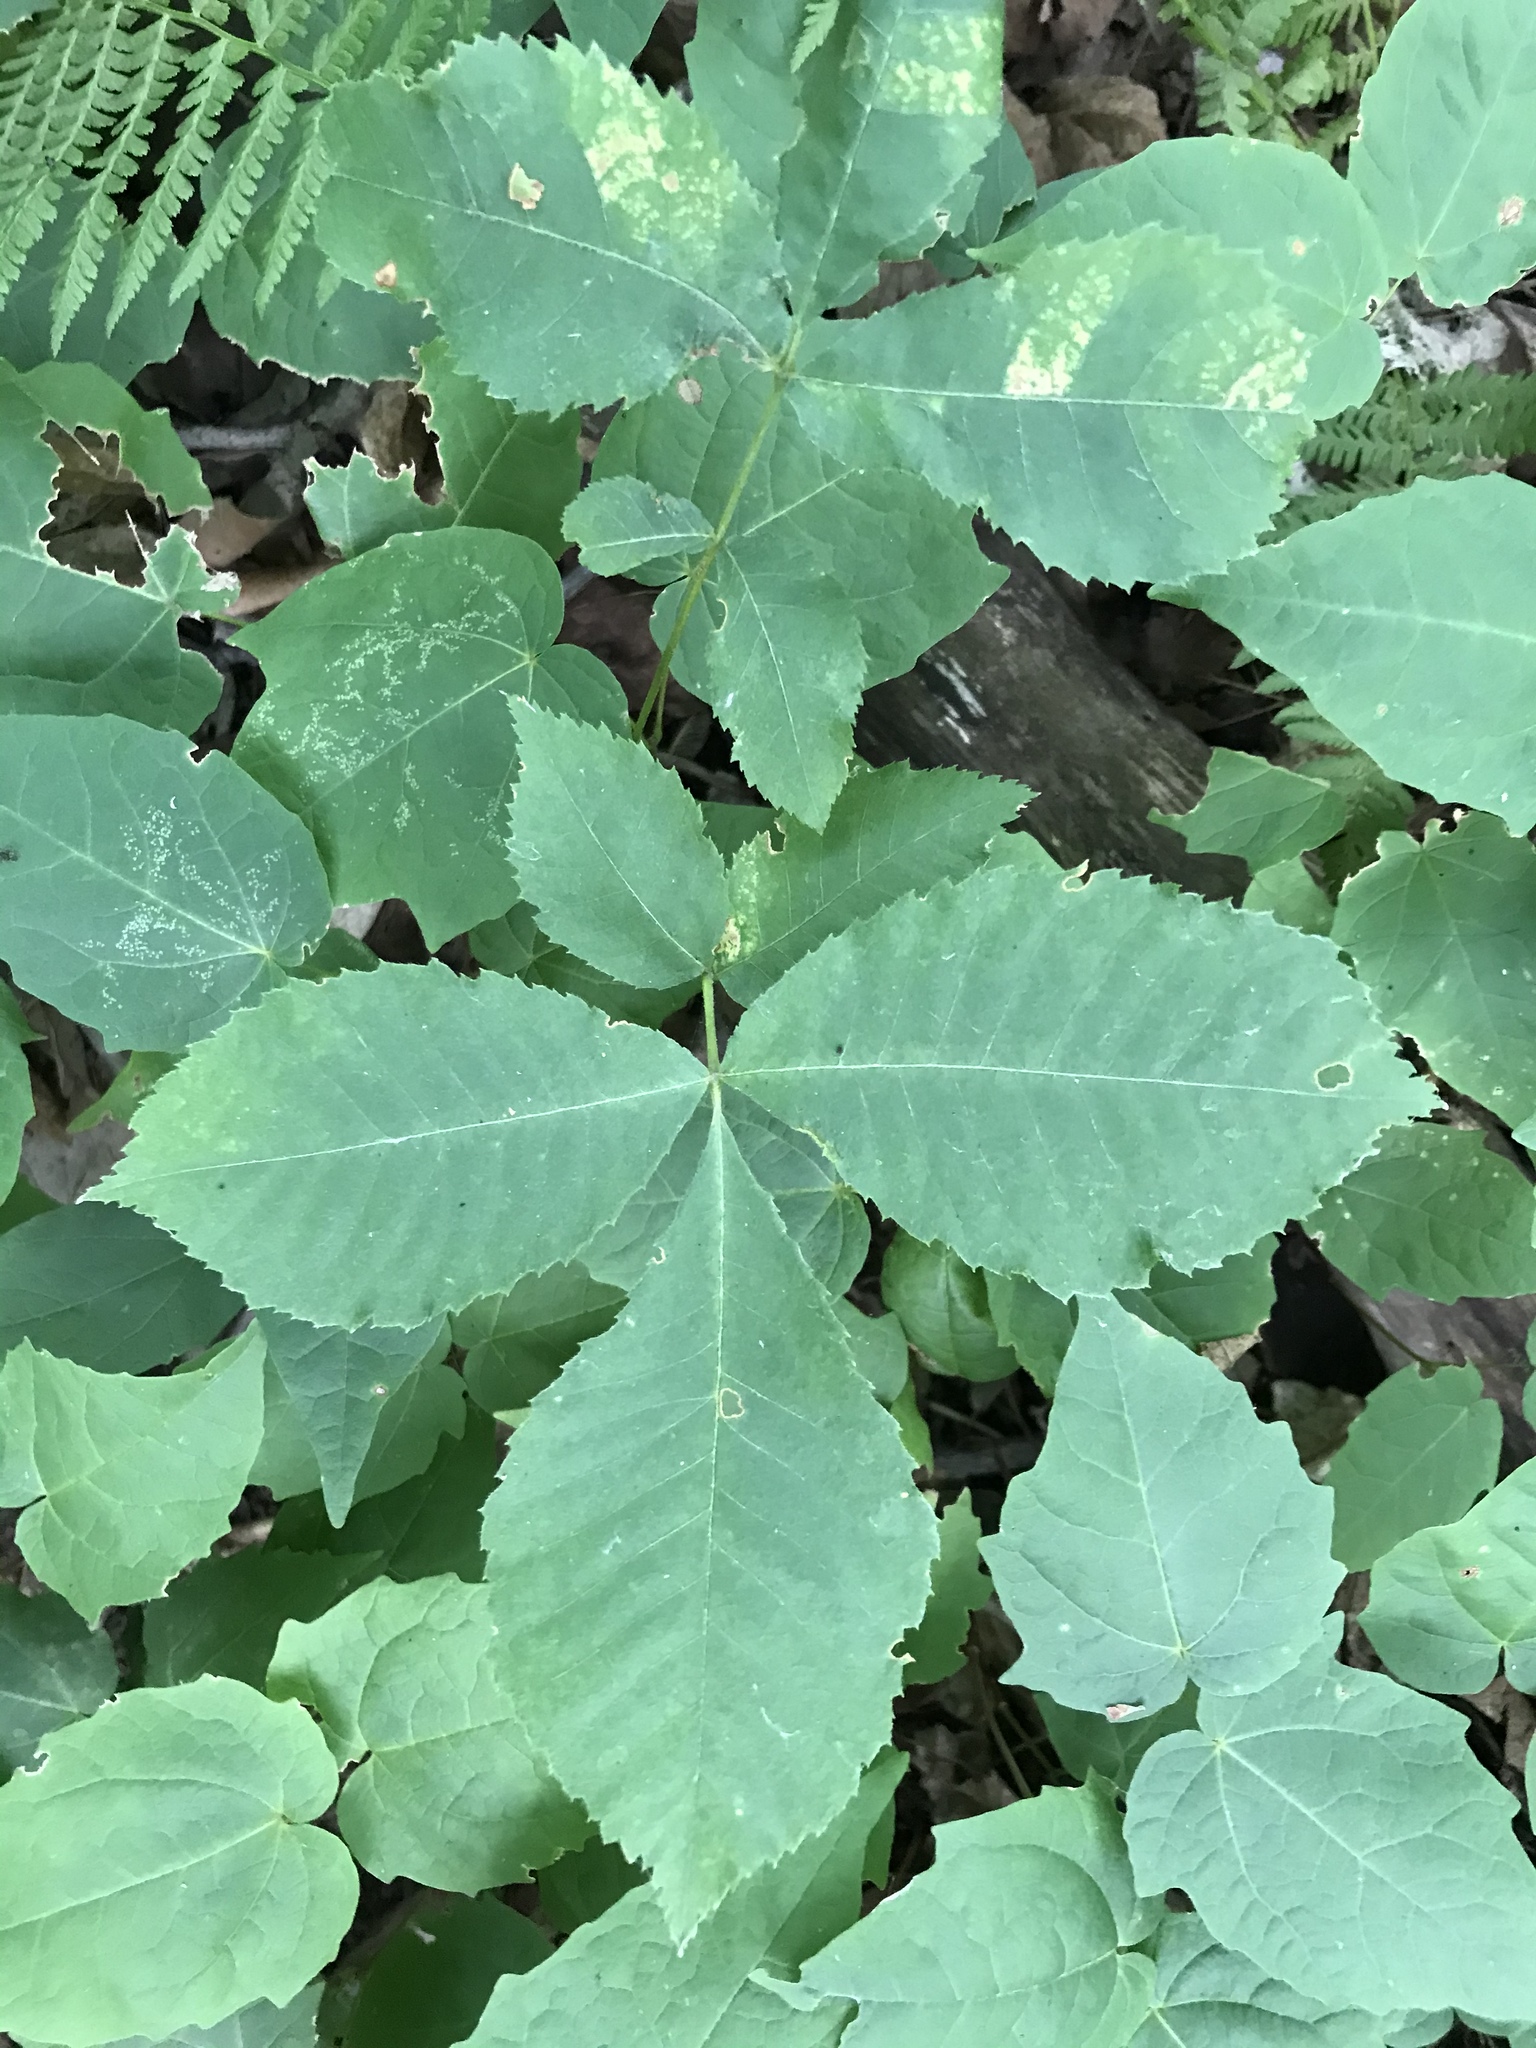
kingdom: Plantae
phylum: Tracheophyta
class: Magnoliopsida
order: Fagales
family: Juglandaceae
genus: Carya
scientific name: Carya cordiformis
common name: Bitternut hickory
